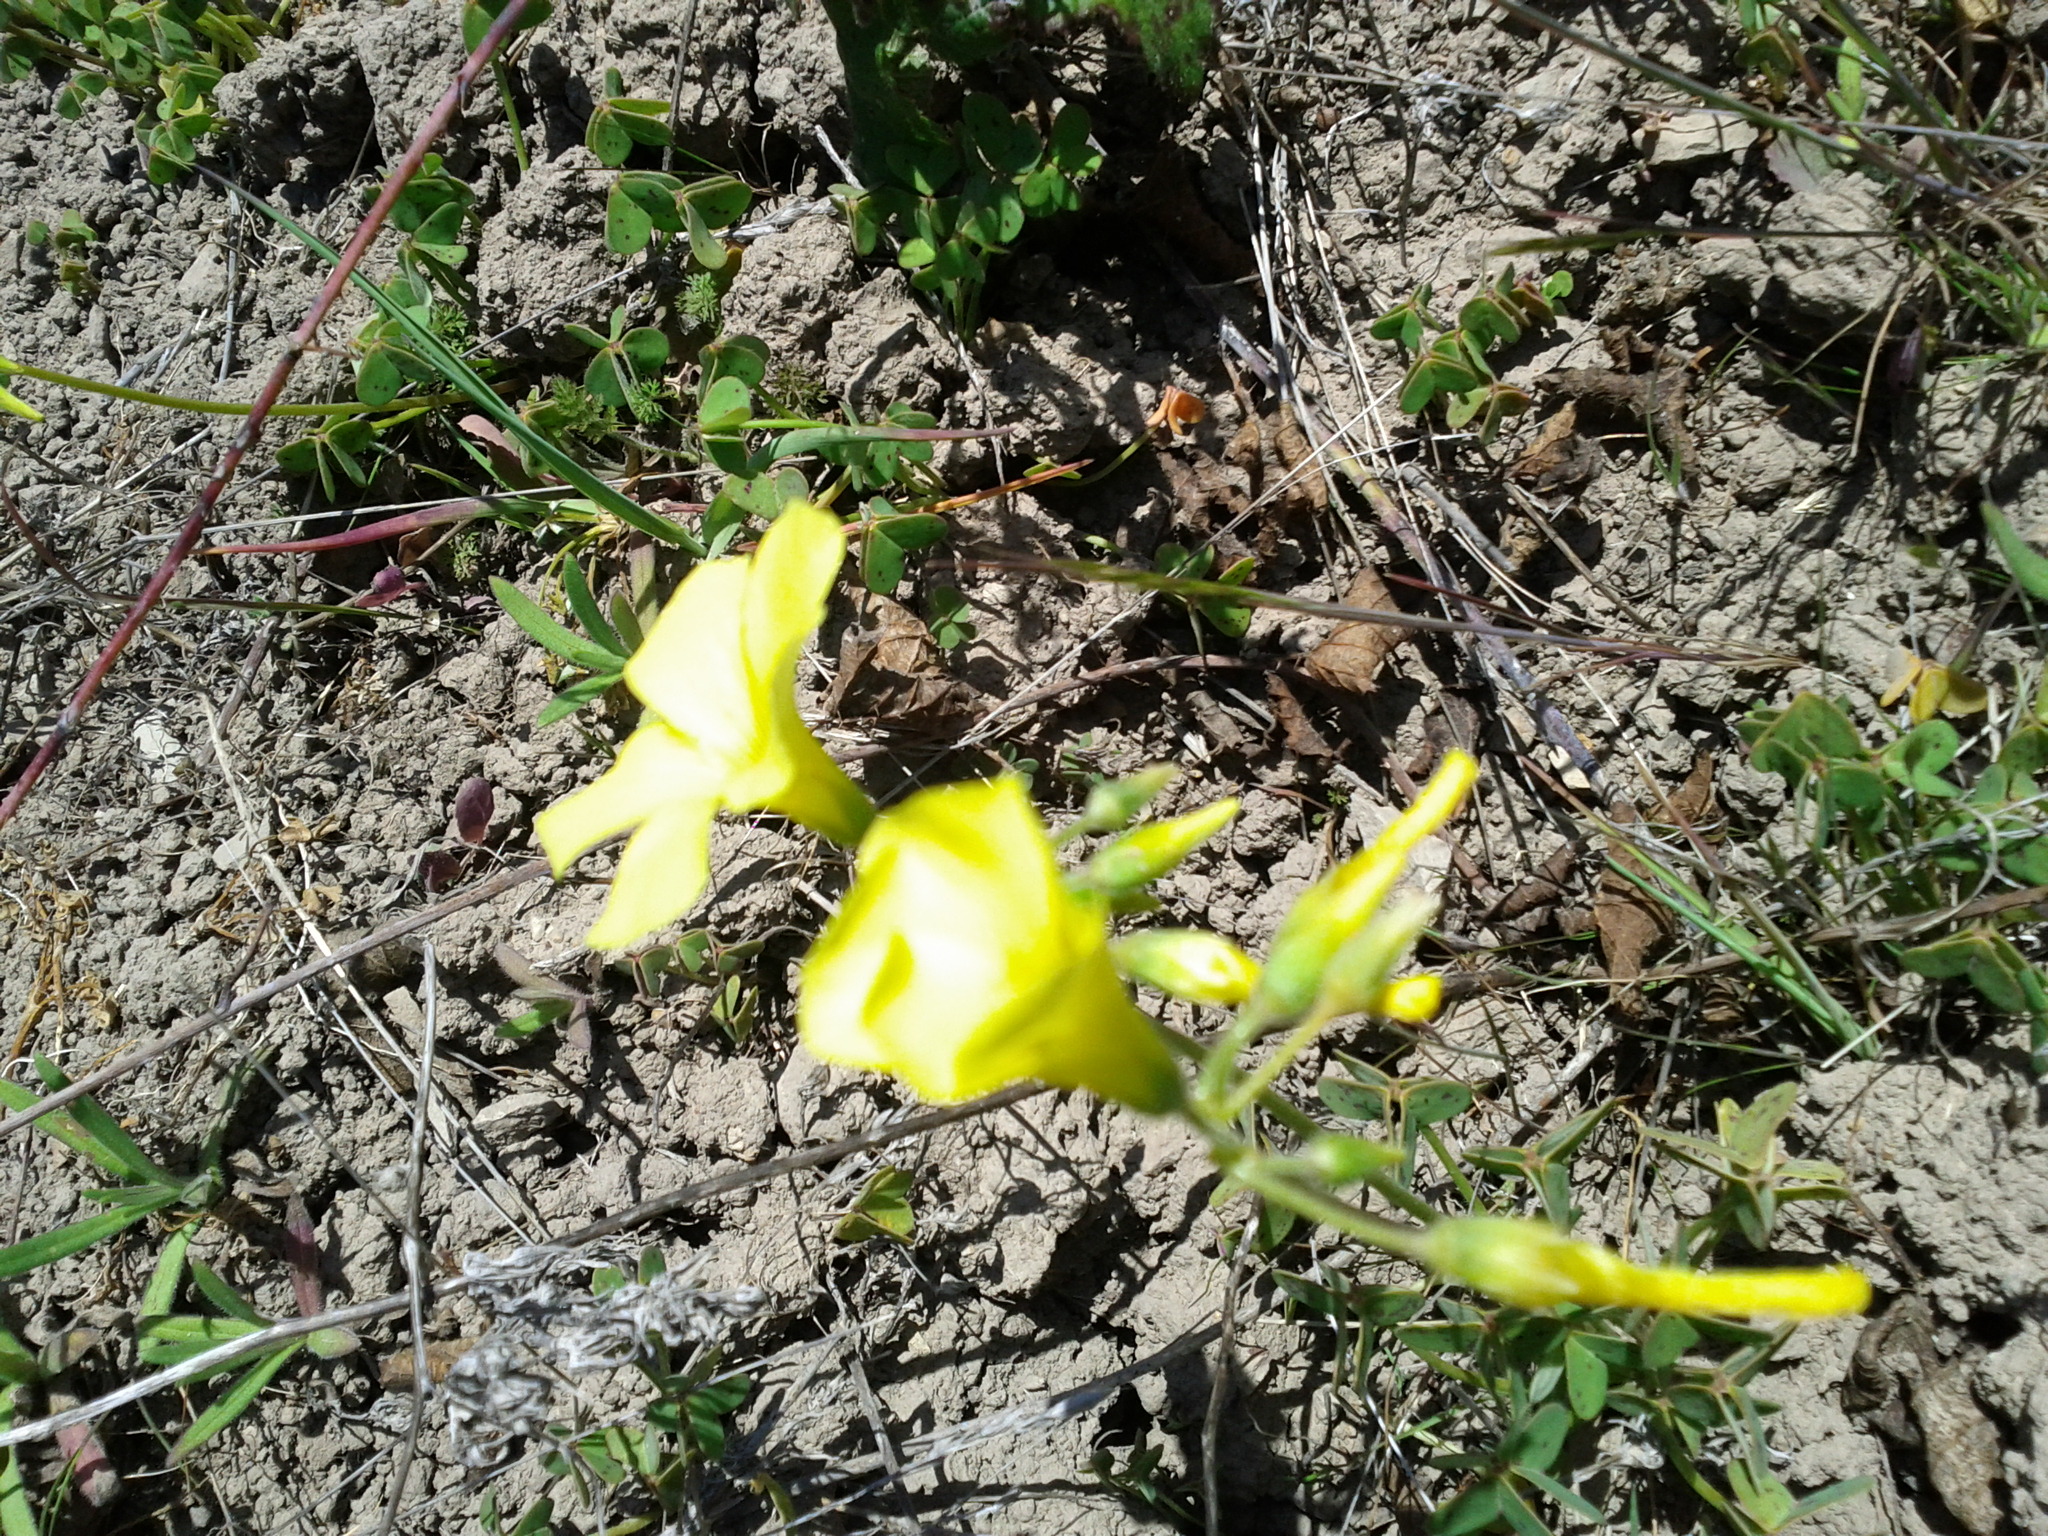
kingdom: Plantae
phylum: Tracheophyta
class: Magnoliopsida
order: Oxalidales
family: Oxalidaceae
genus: Oxalis
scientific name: Oxalis pes-caprae
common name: Bermuda-buttercup
